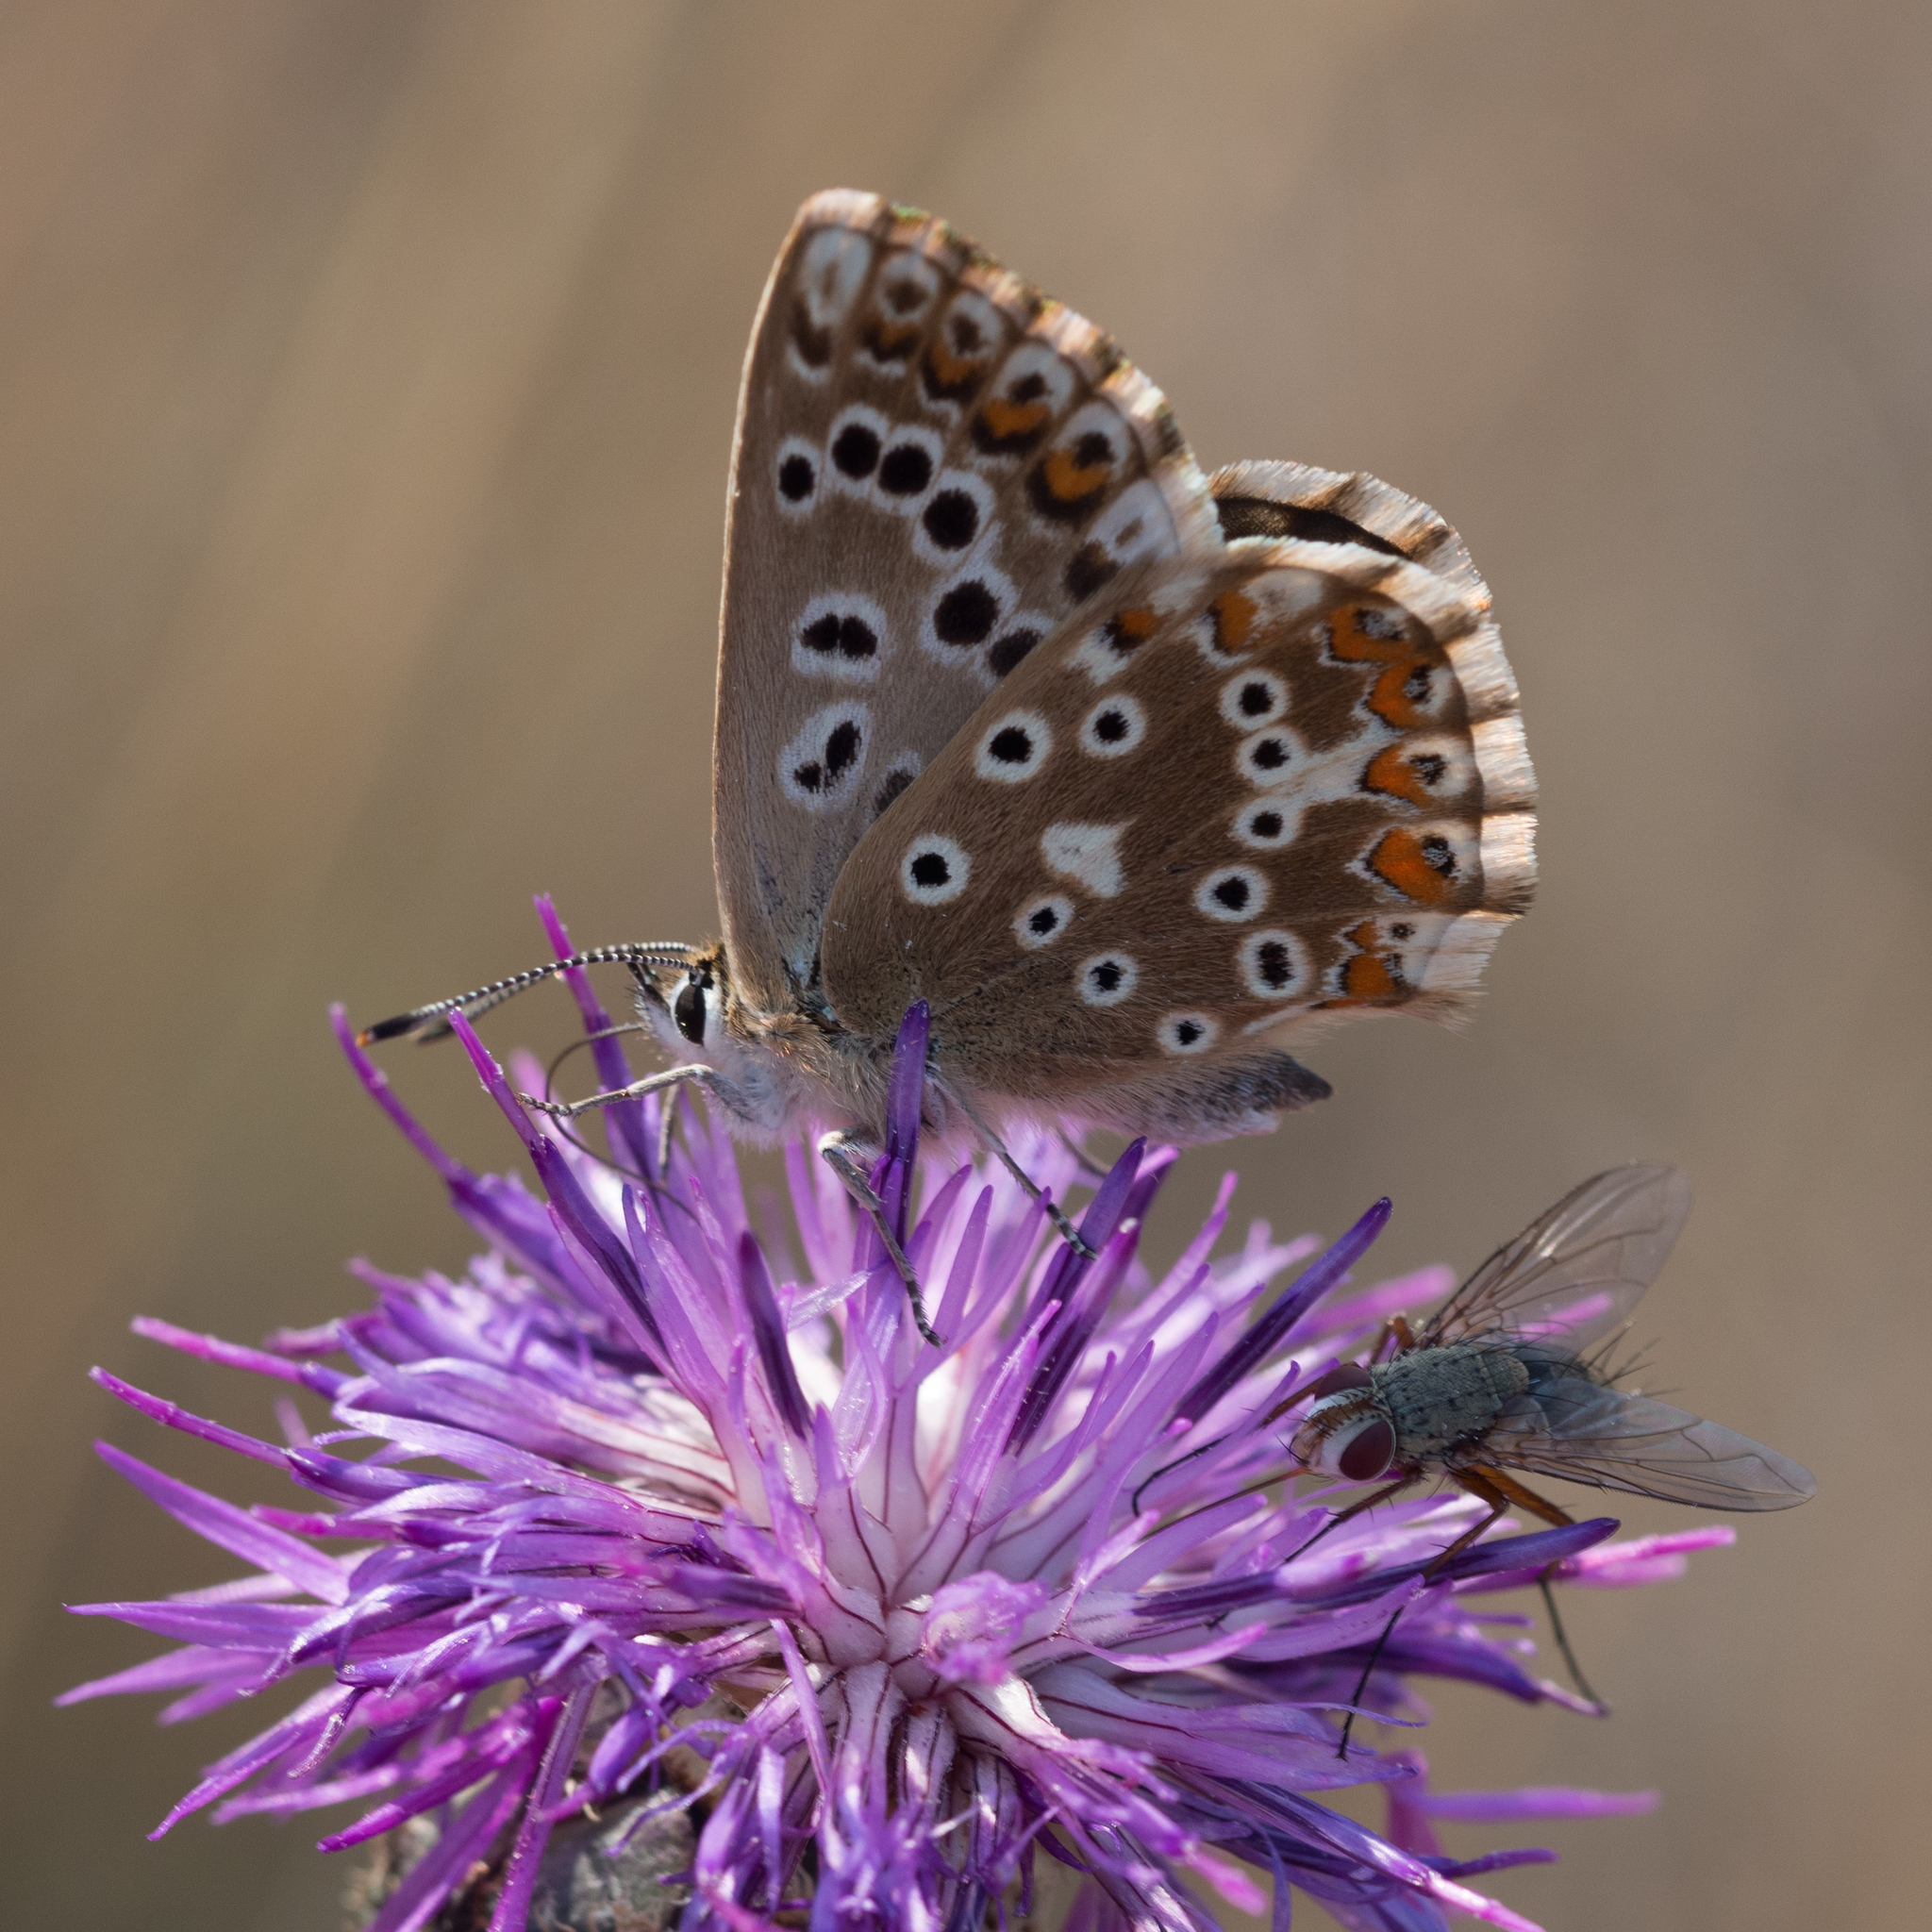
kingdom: Animalia
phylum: Arthropoda
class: Insecta
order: Lepidoptera
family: Lycaenidae
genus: Lysandra
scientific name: Lysandra coridon
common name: Chalkhill blue
